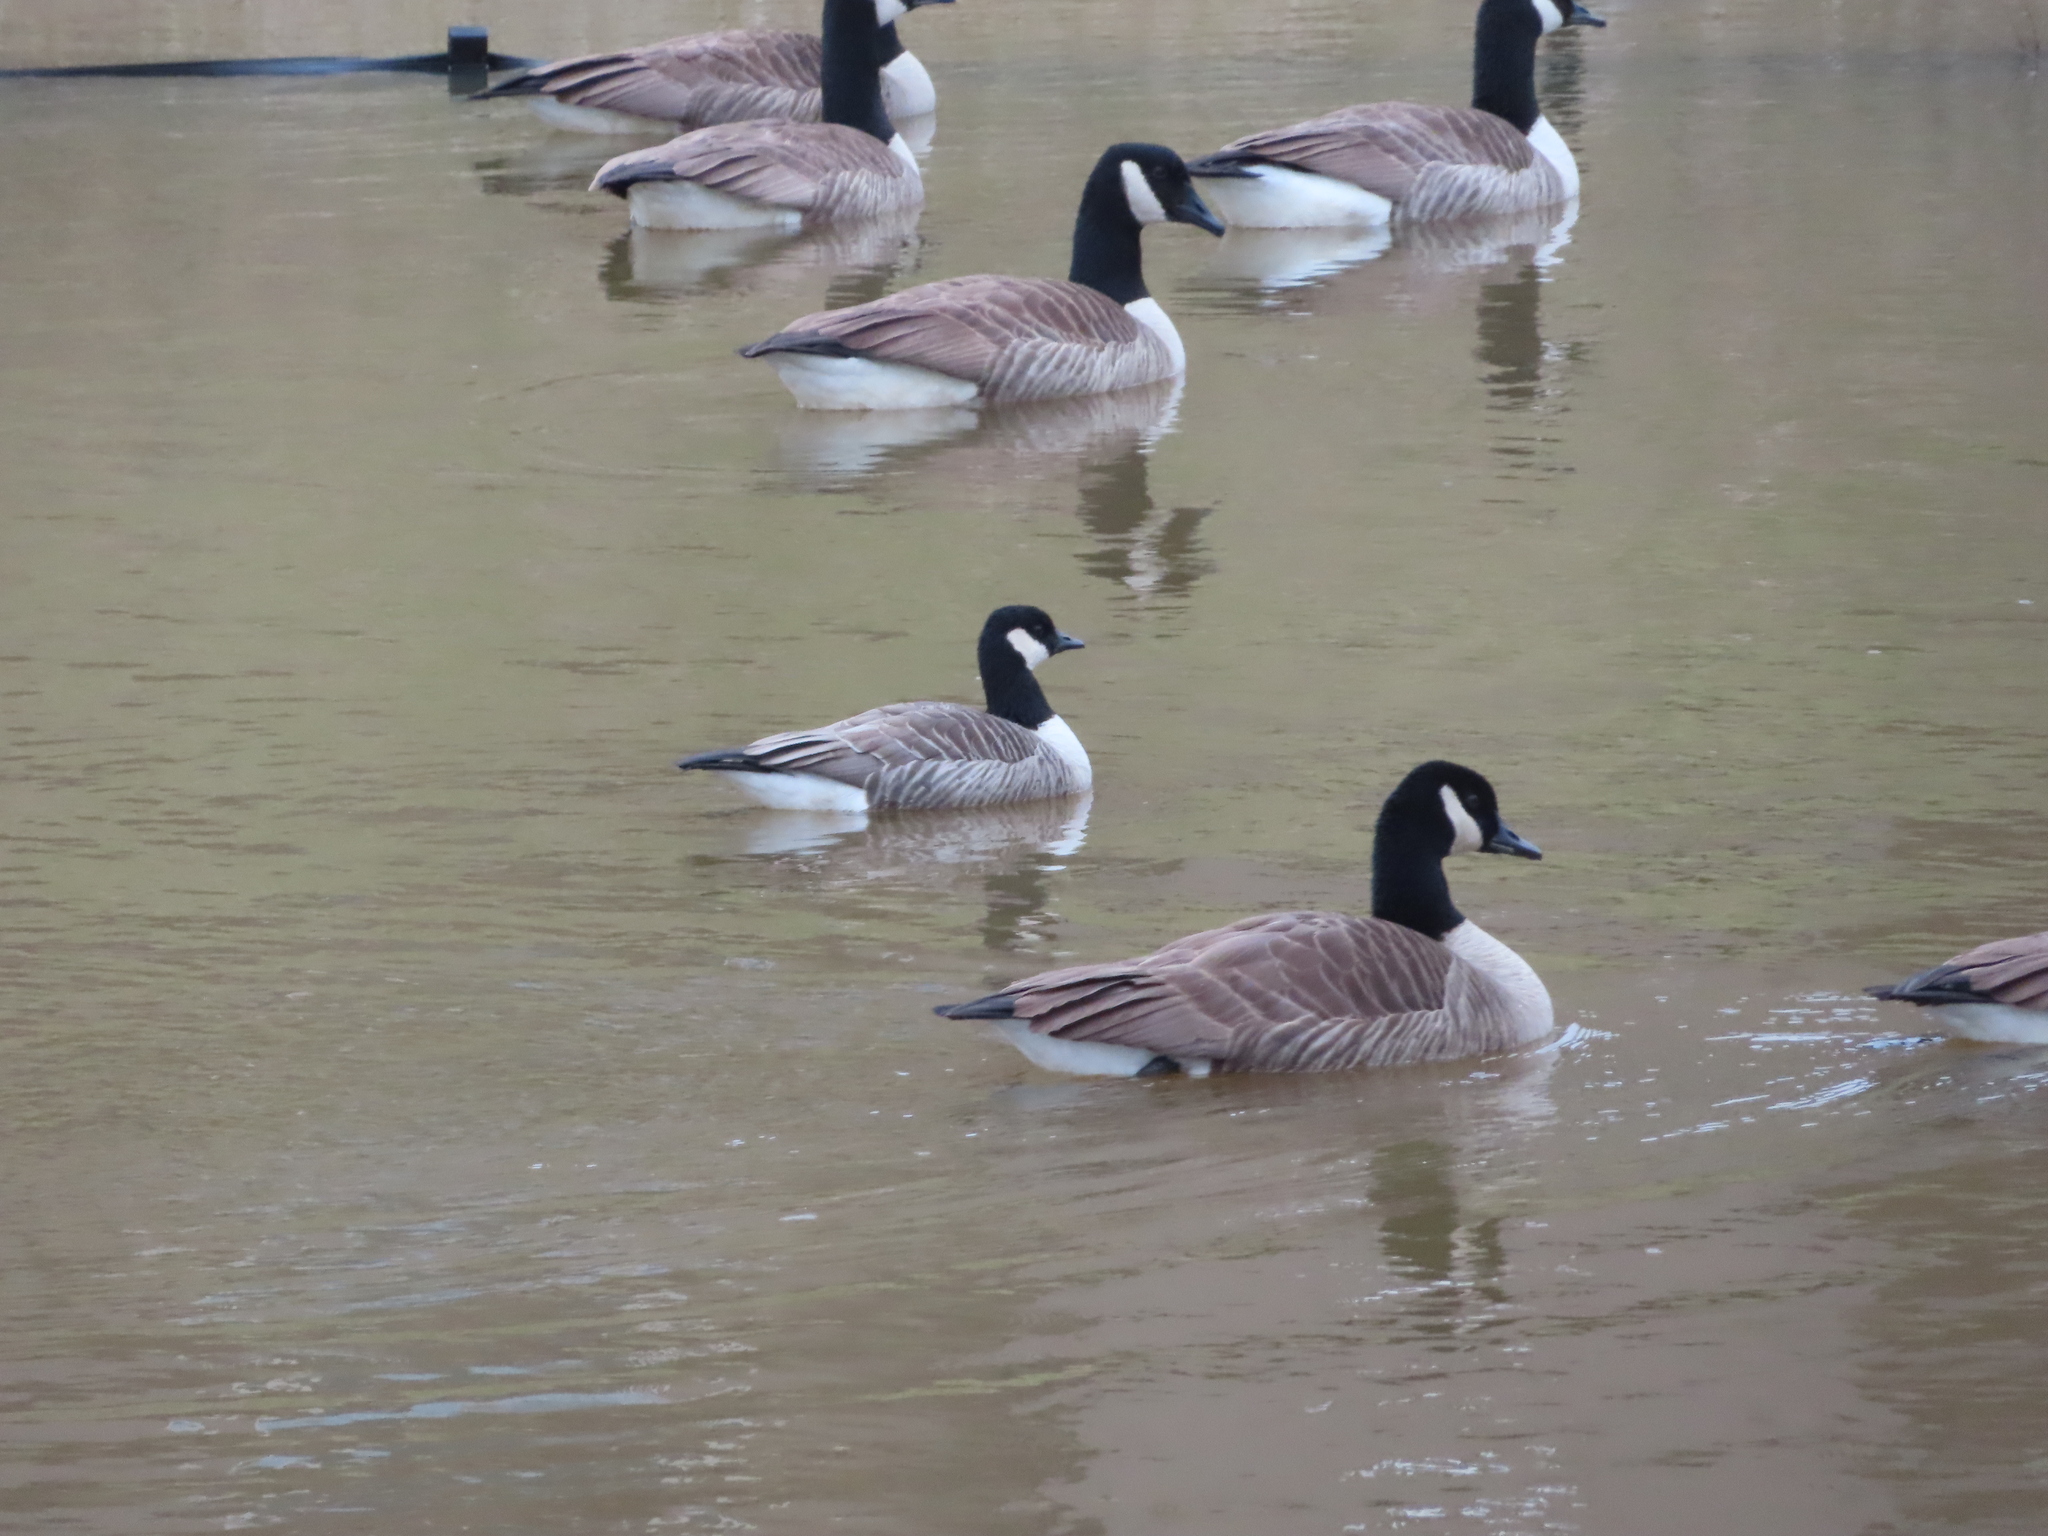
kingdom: Animalia
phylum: Chordata
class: Aves
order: Anseriformes
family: Anatidae
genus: Branta
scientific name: Branta hutchinsii
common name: Cackling goose
